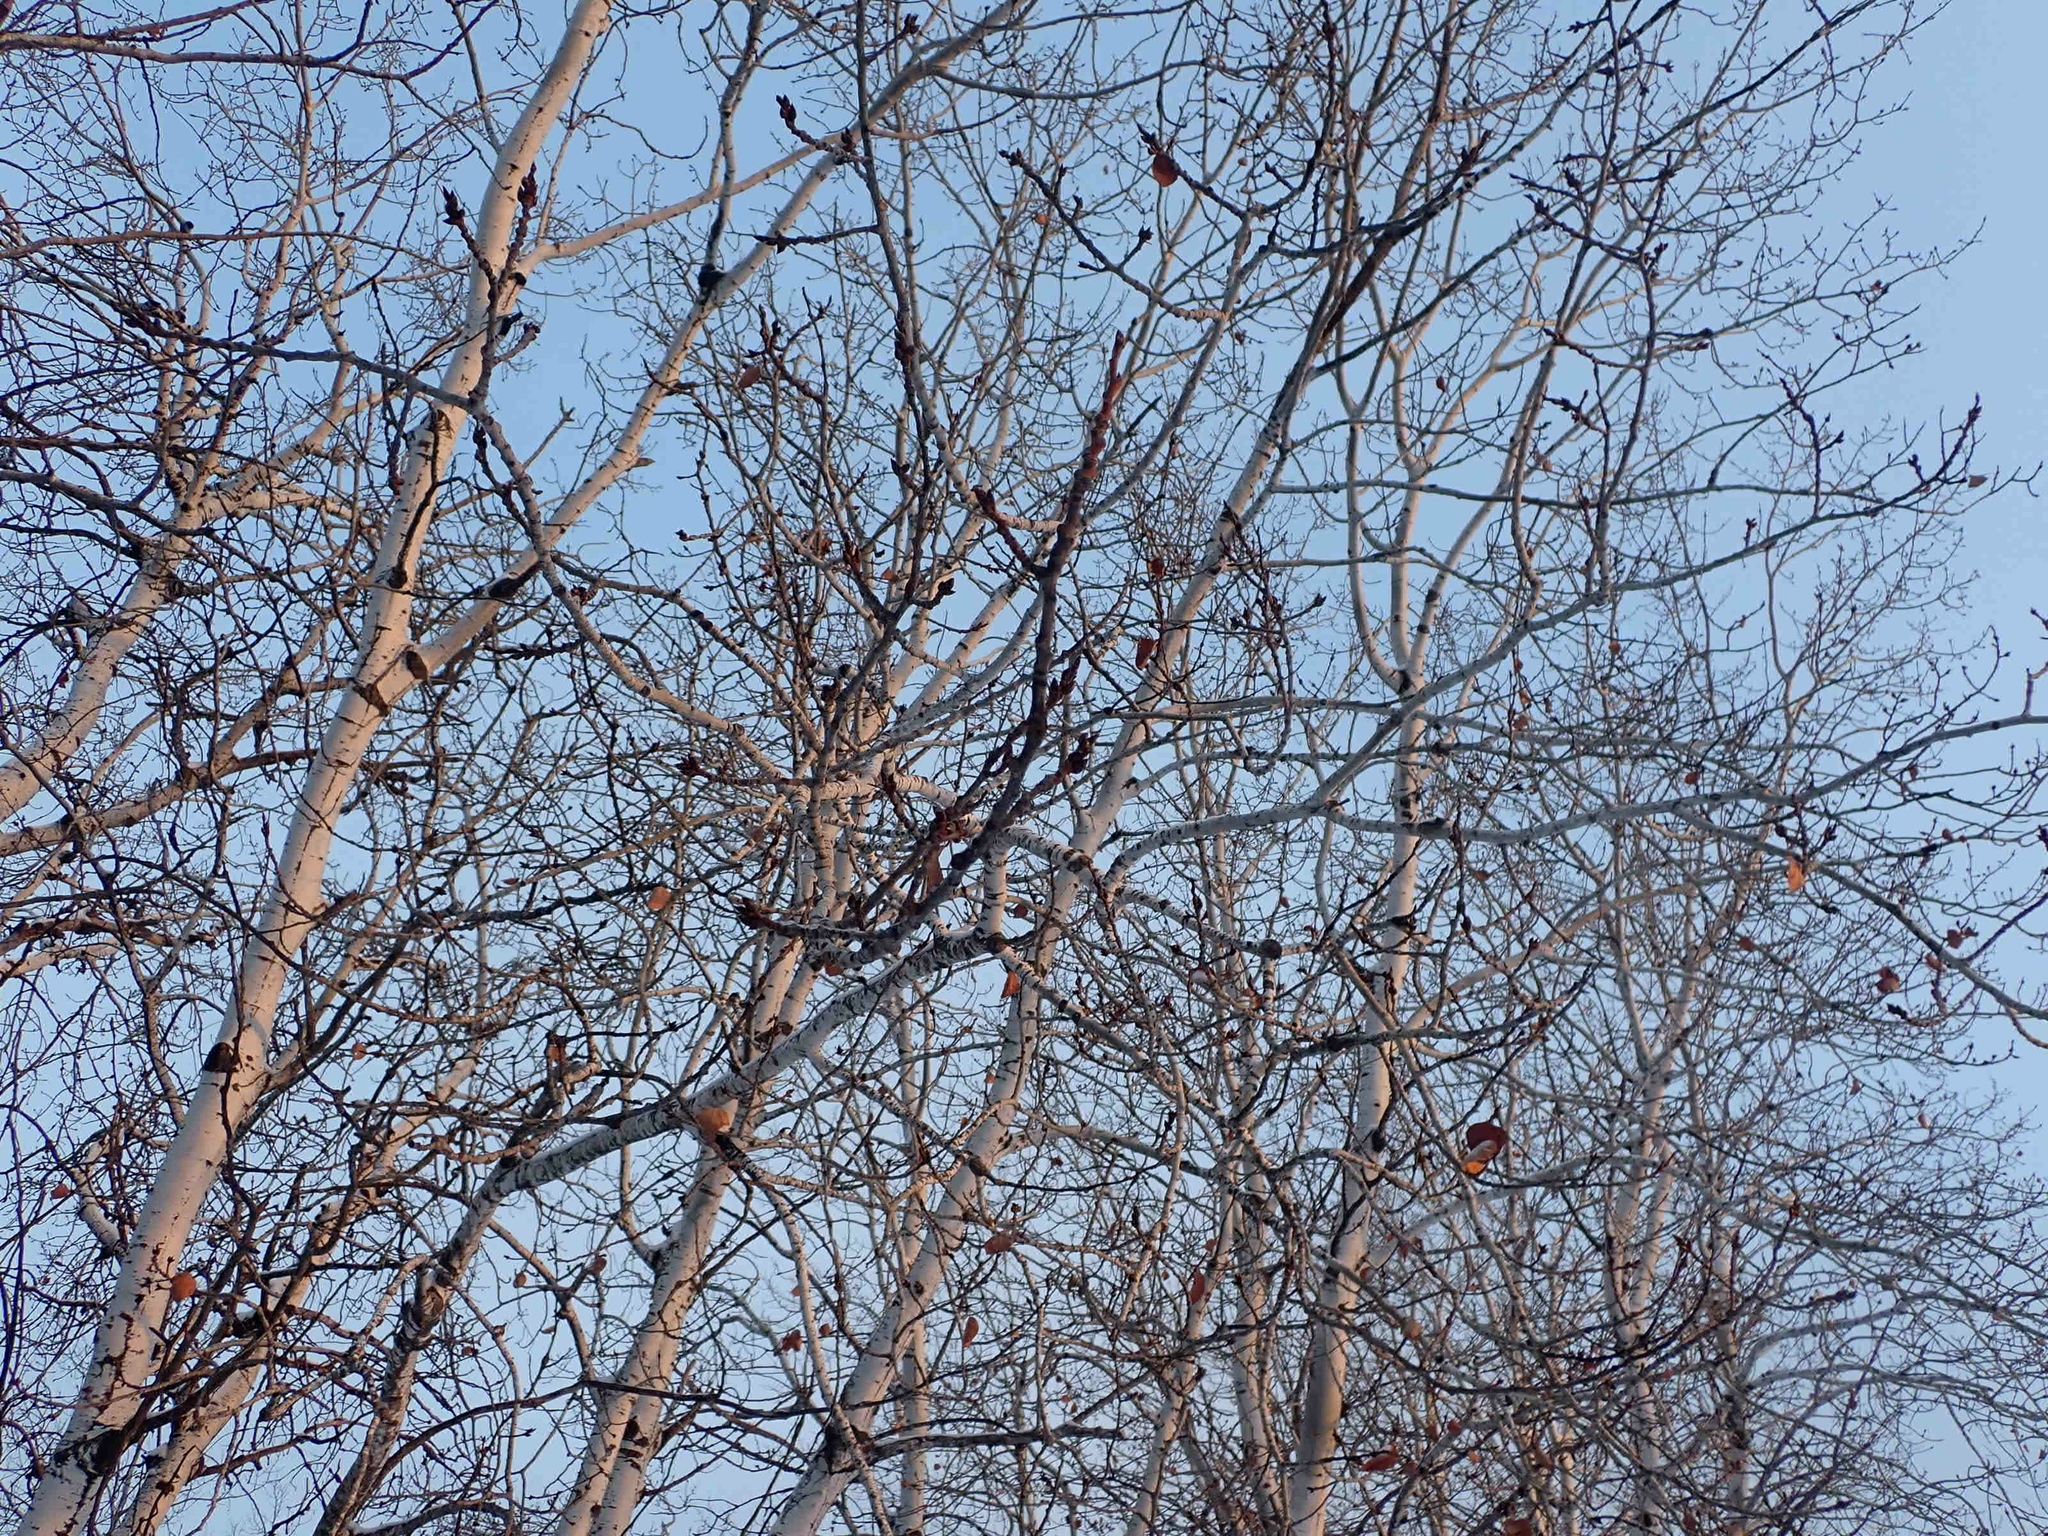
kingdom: Plantae
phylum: Tracheophyta
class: Magnoliopsida
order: Malpighiales
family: Salicaceae
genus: Populus
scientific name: Populus tremuloides
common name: Quaking aspen
